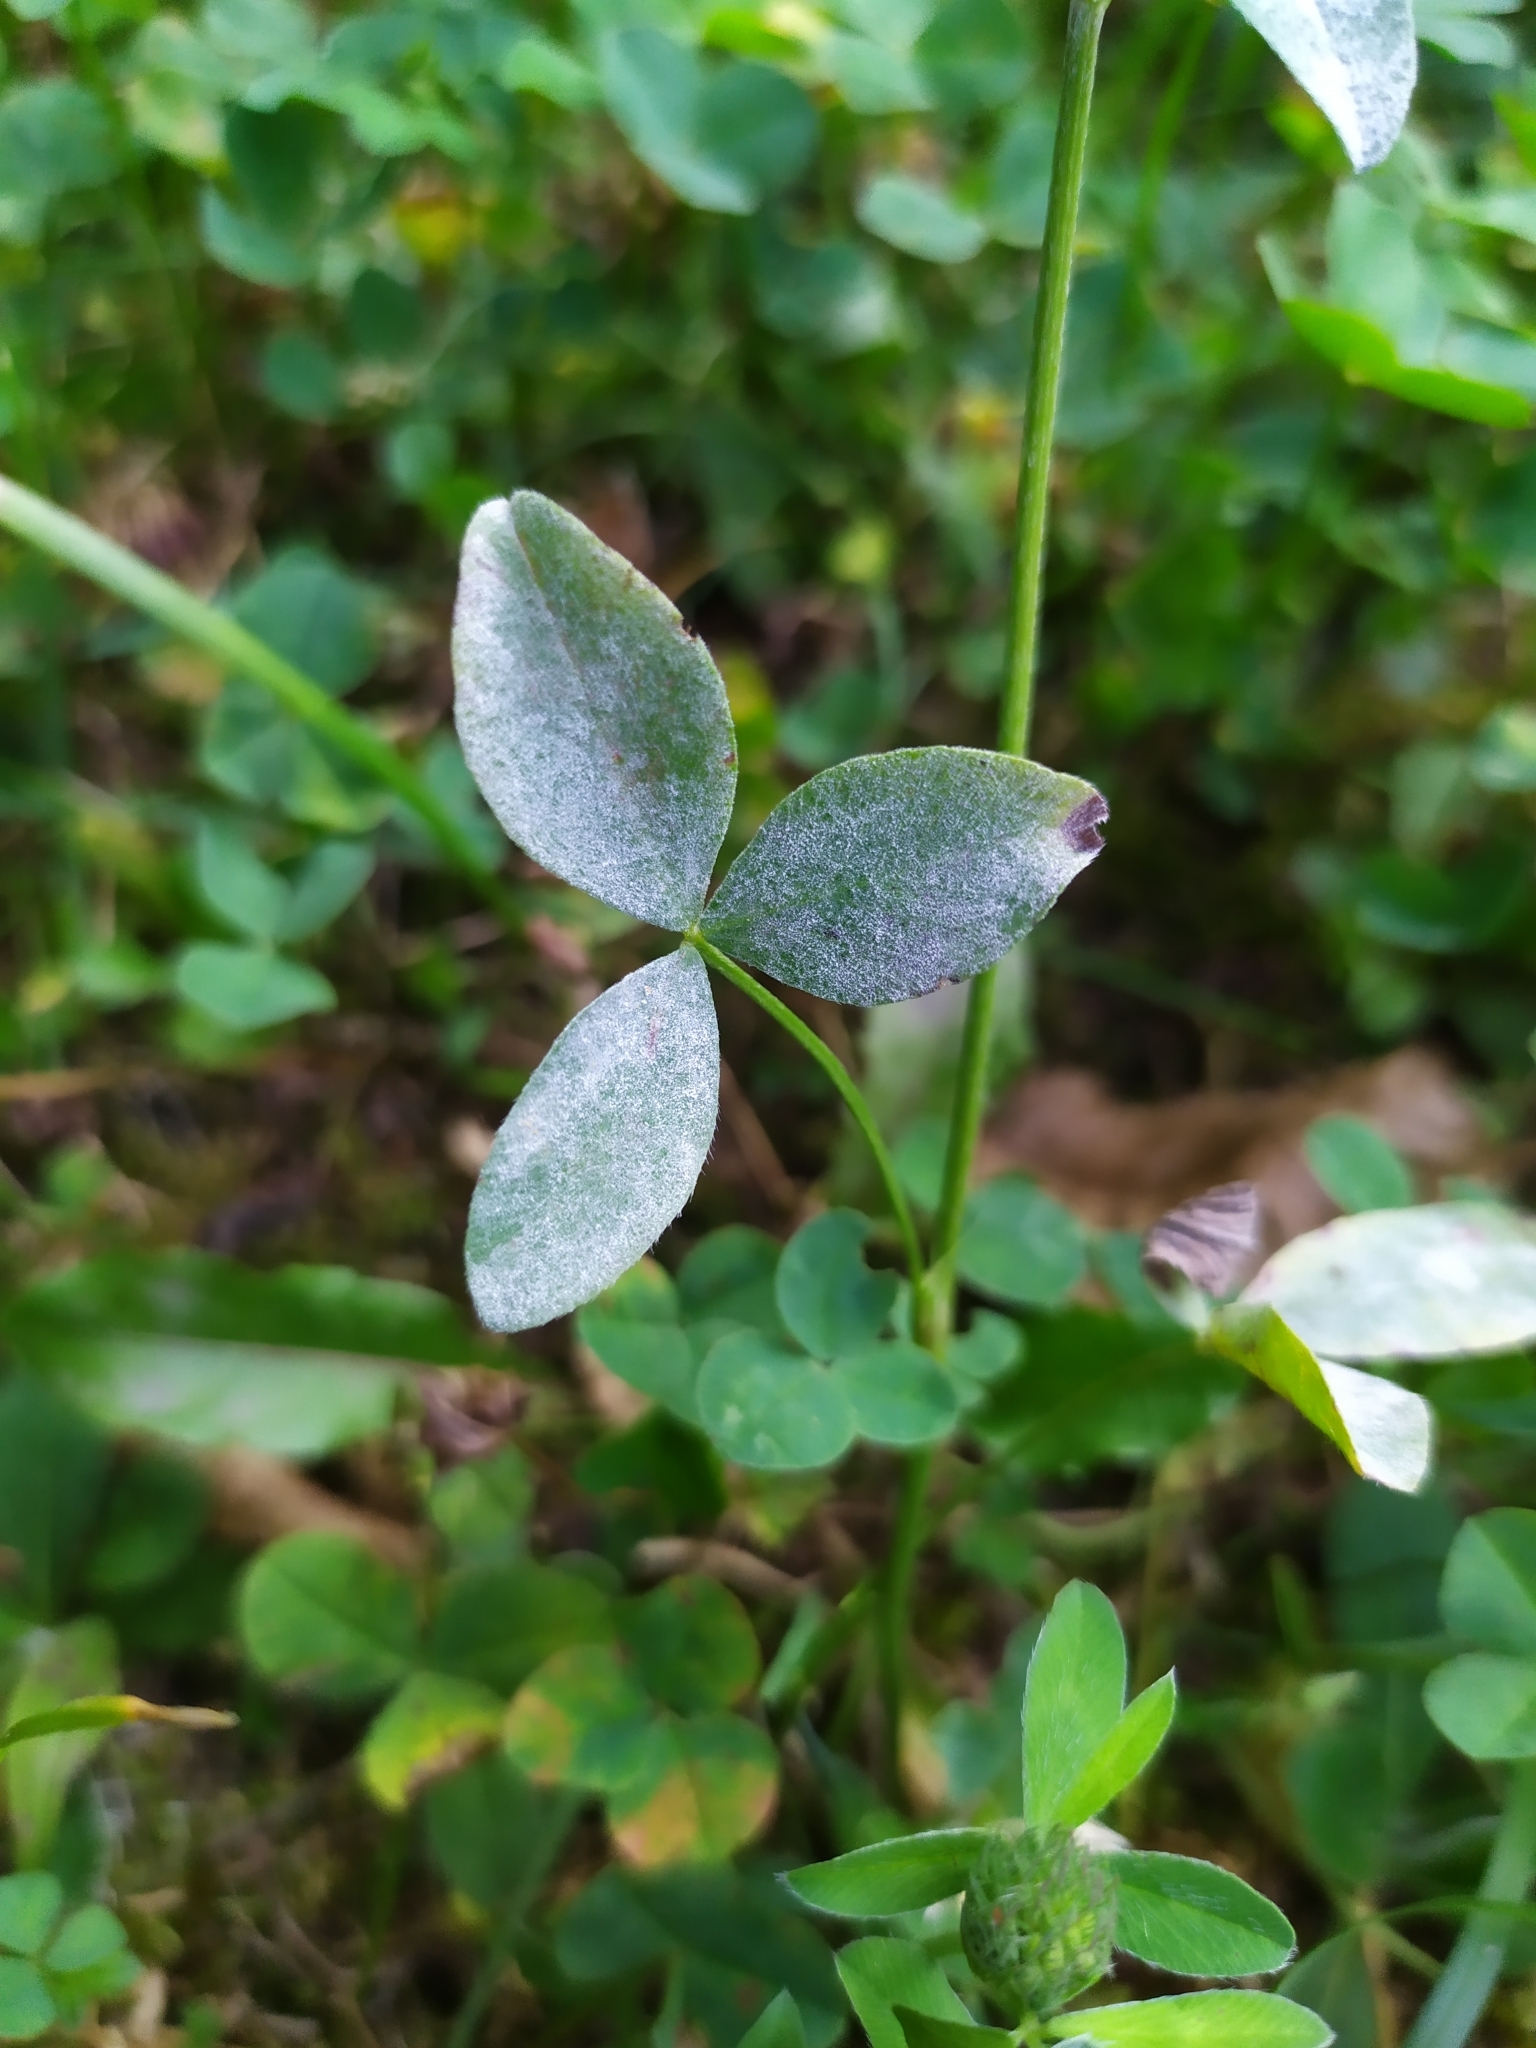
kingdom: Fungi
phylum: Ascomycota
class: Leotiomycetes
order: Helotiales
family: Erysiphaceae
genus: Erysiphe
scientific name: Erysiphe trifoliorum
